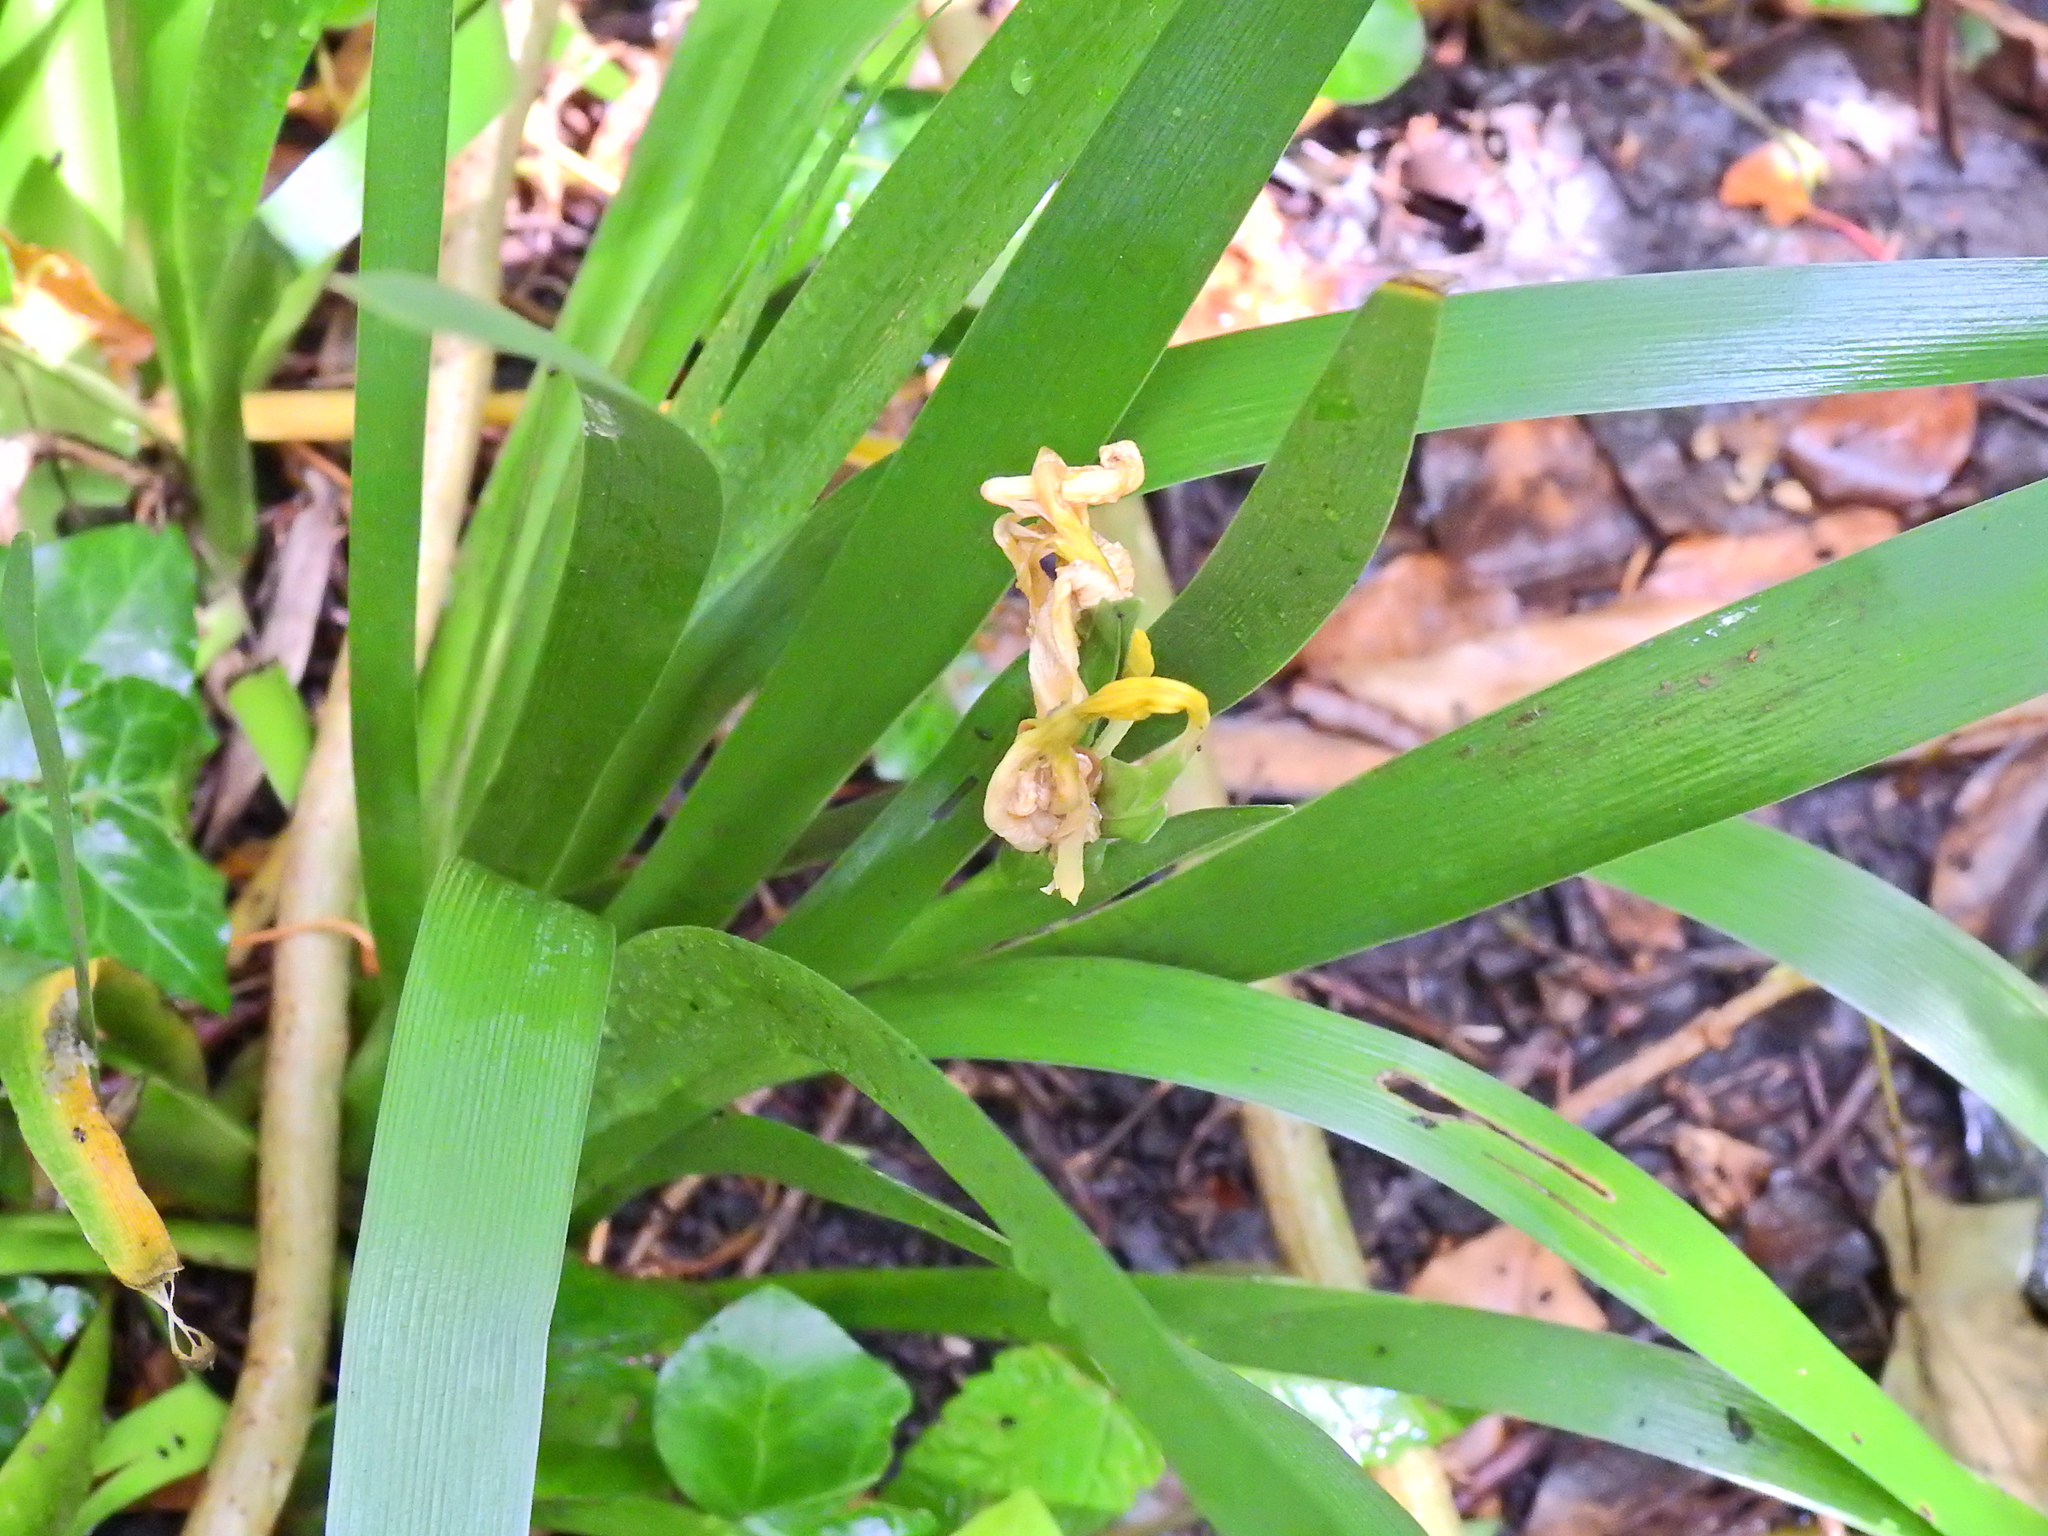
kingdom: Plantae
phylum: Tracheophyta
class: Liliopsida
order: Asparagales
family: Iridaceae
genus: Iris
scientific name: Iris foetidissima
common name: Stinking iris
